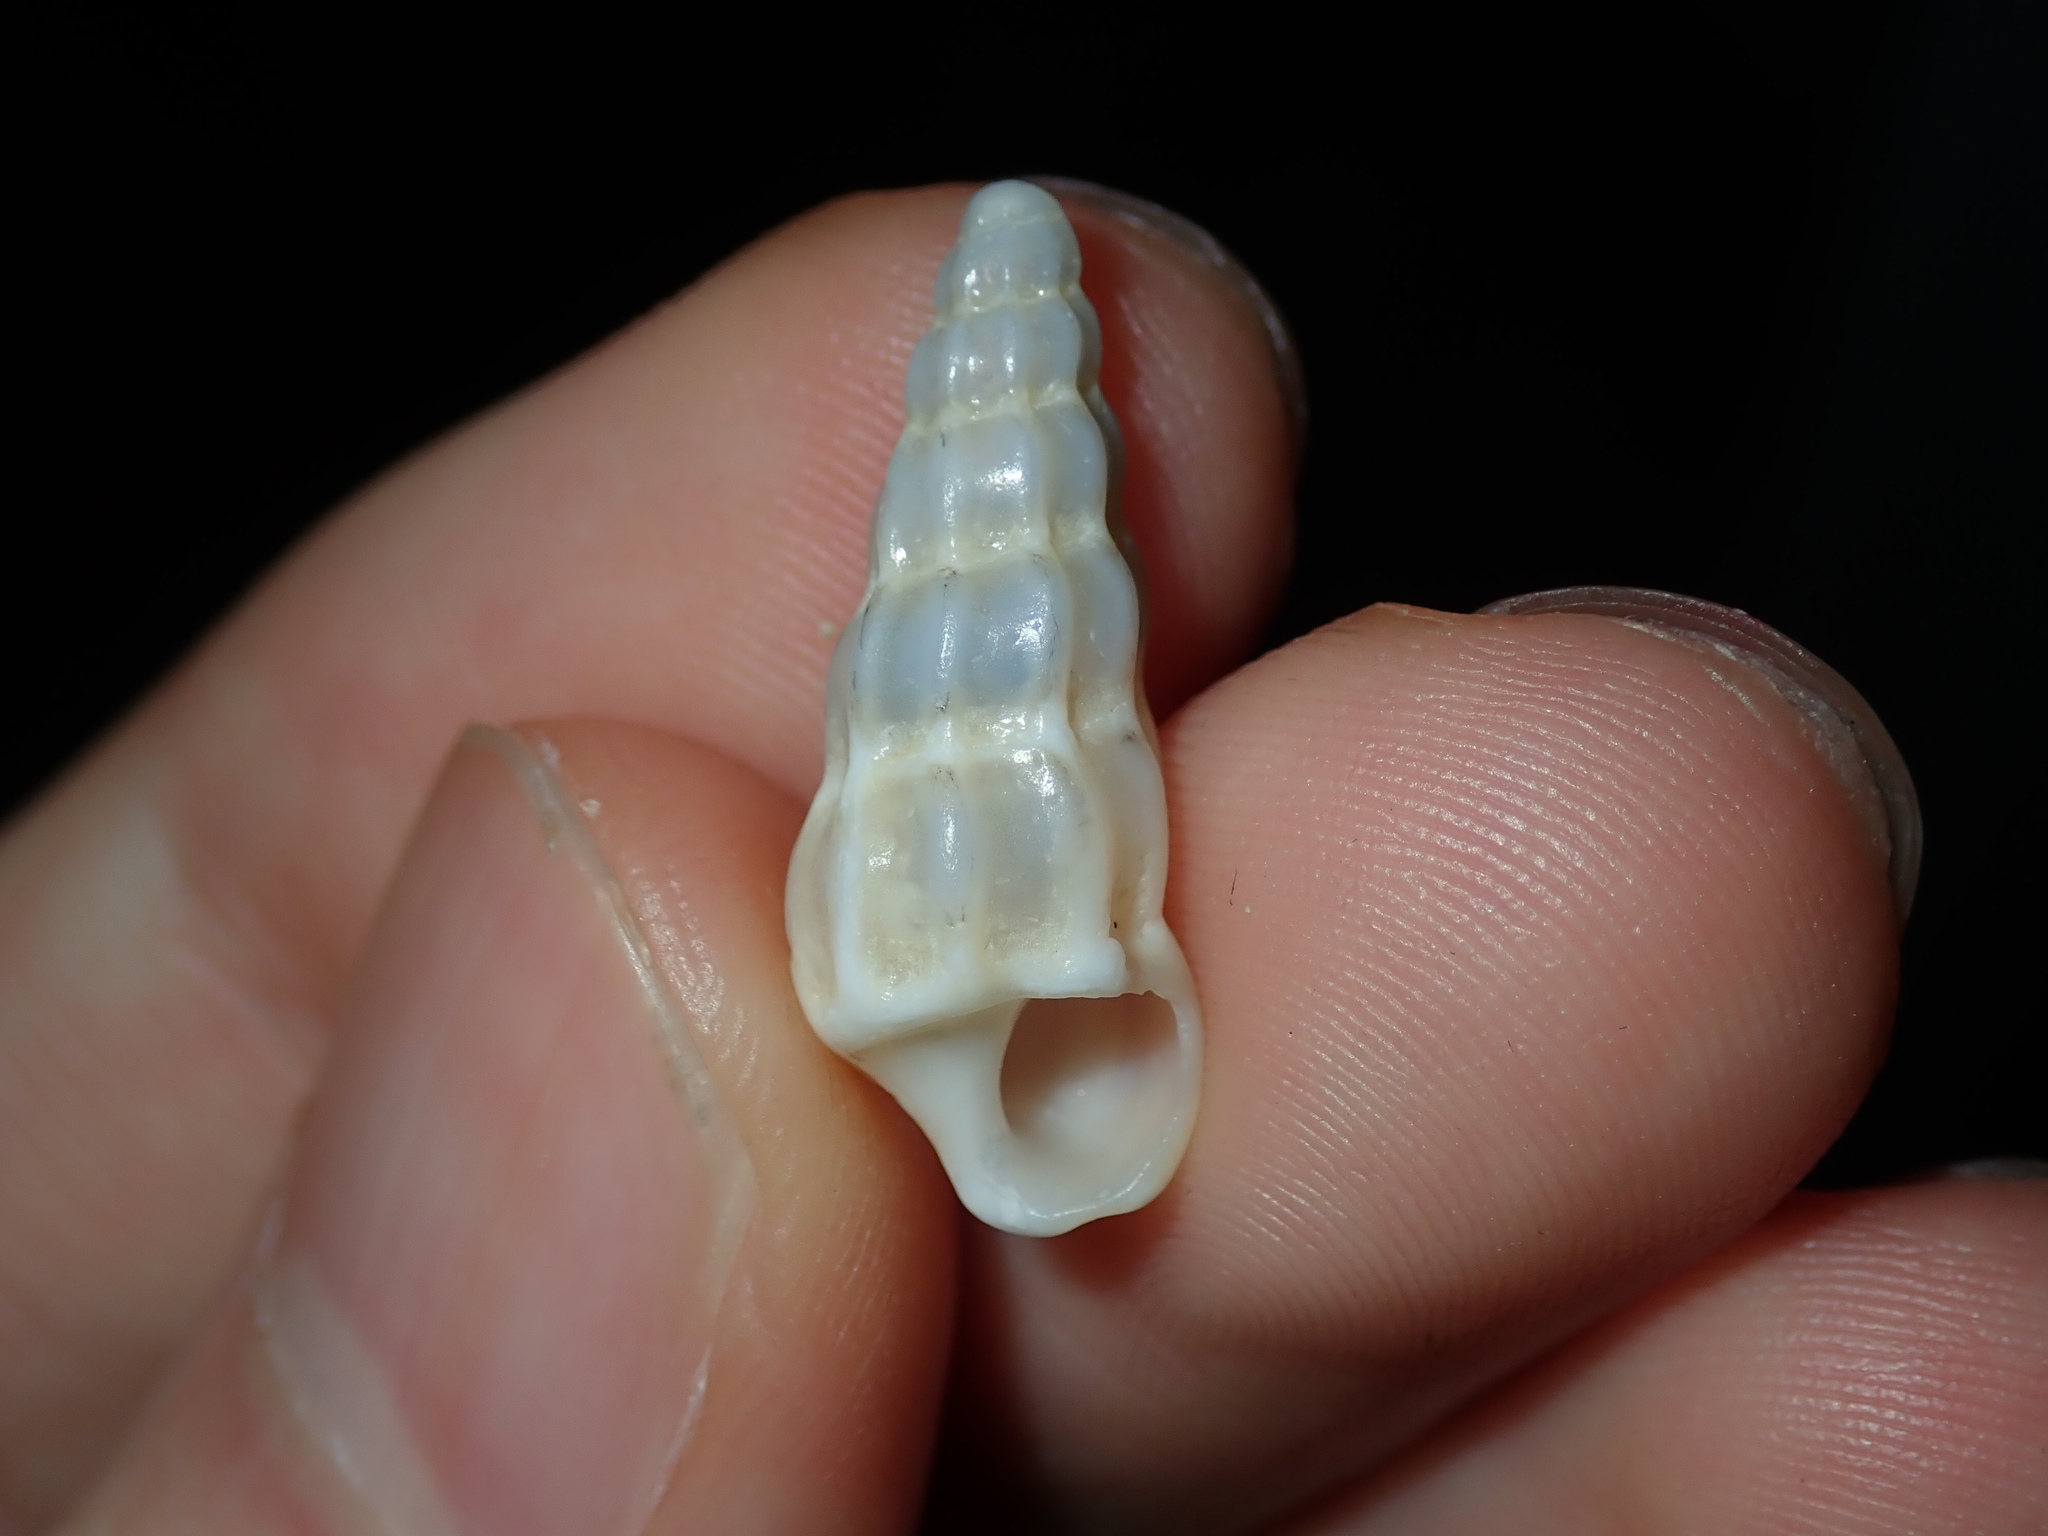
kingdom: Animalia
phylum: Mollusca
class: Gastropoda
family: Epitoniidae
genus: Opalia
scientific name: Opalia australis
